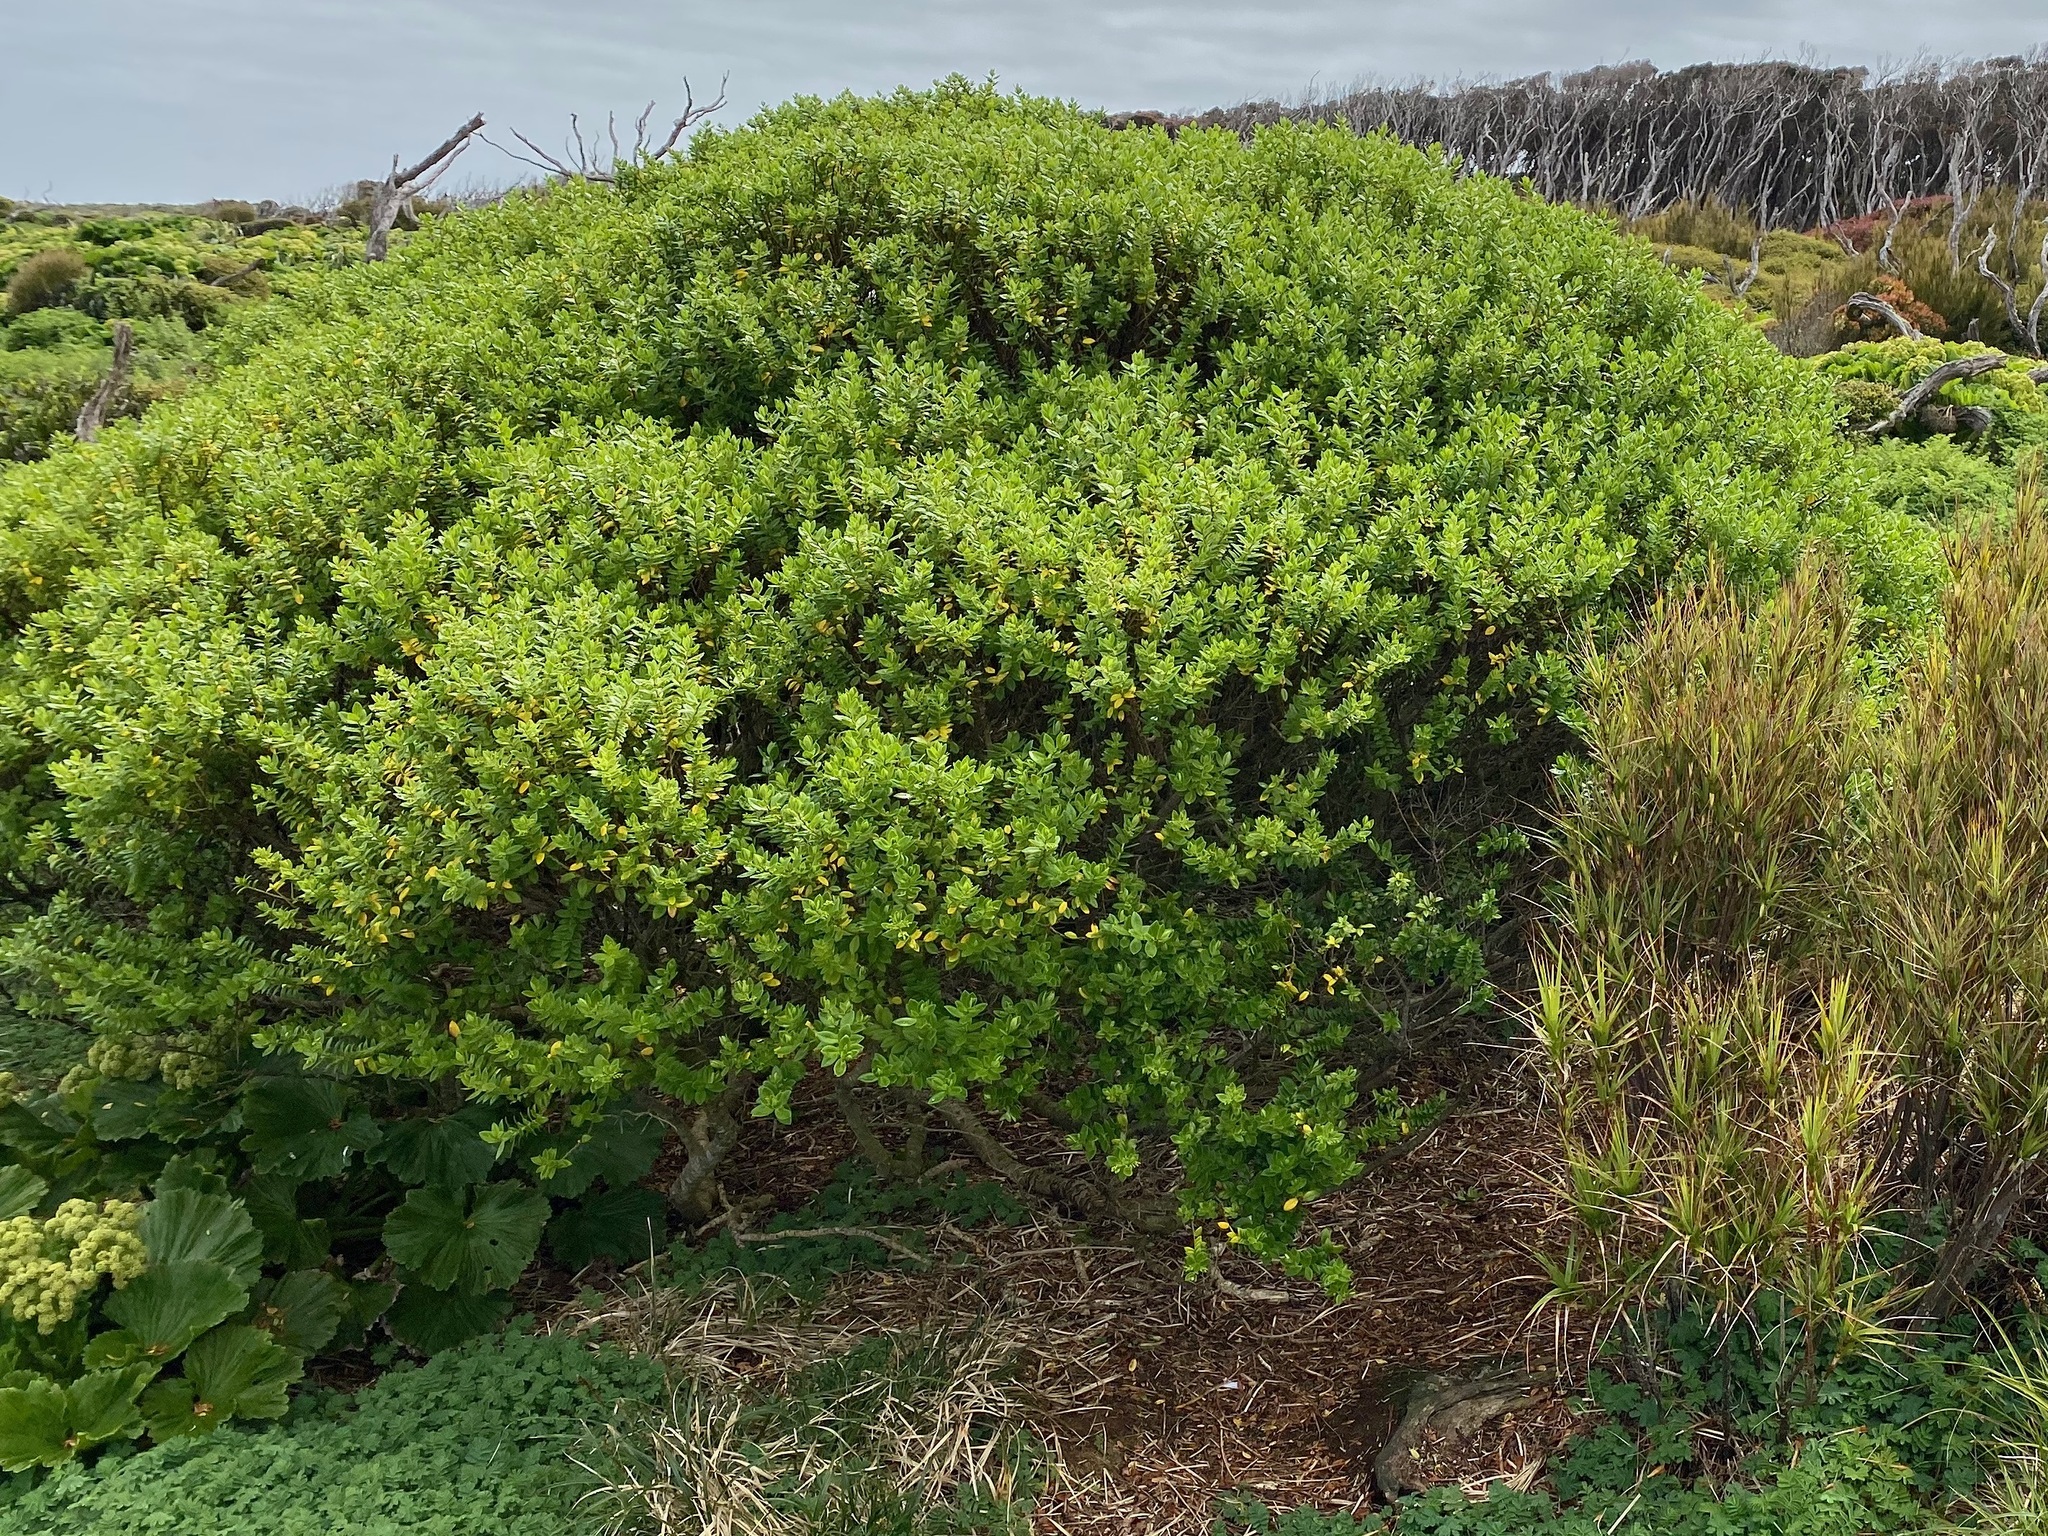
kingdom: Plantae
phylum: Tracheophyta
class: Magnoliopsida
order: Lamiales
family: Plantaginaceae
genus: Veronica
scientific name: Veronica elliptica
